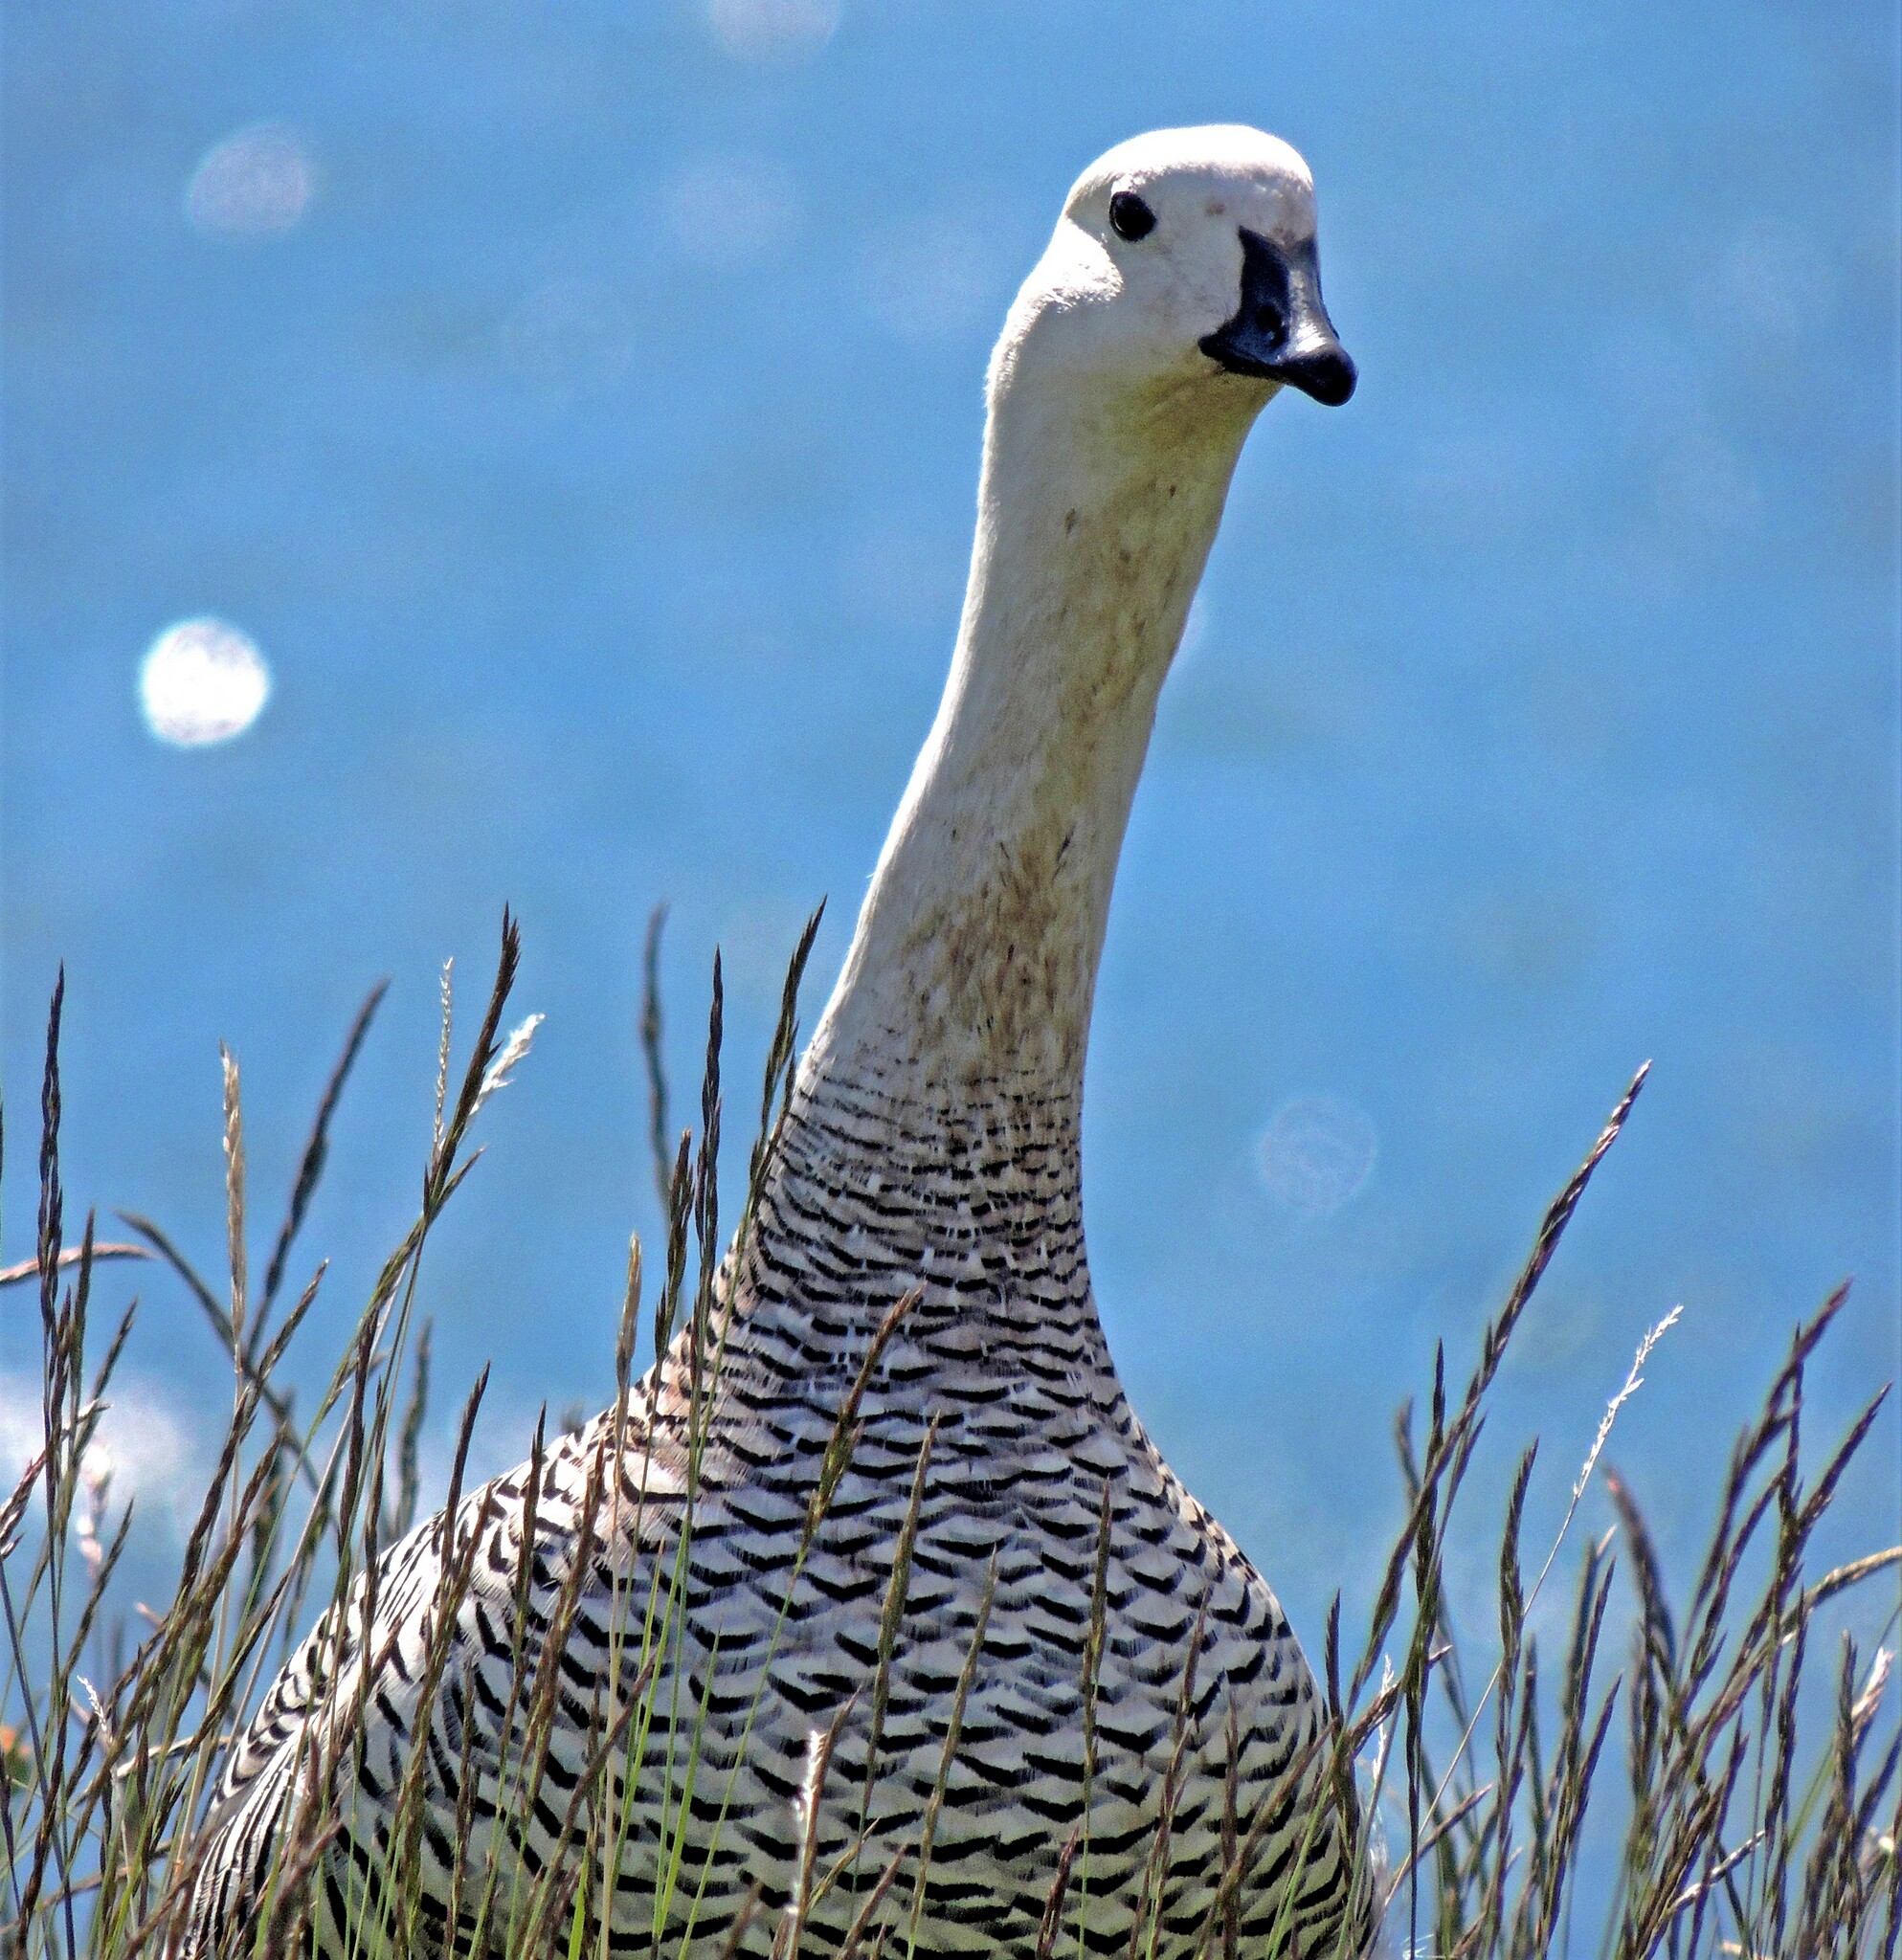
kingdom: Animalia
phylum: Chordata
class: Aves
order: Anseriformes
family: Anatidae
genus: Chloephaga
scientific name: Chloephaga picta
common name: Upland goose
